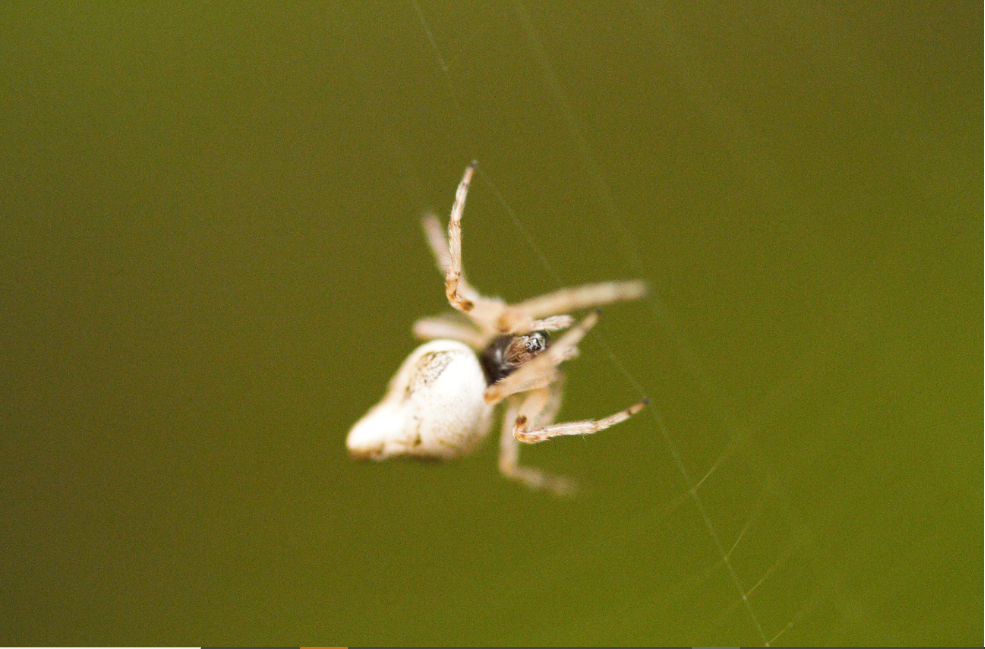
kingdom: Animalia
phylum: Arthropoda
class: Arachnida
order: Araneae
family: Araneidae
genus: Cyclosa
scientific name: Cyclosa
